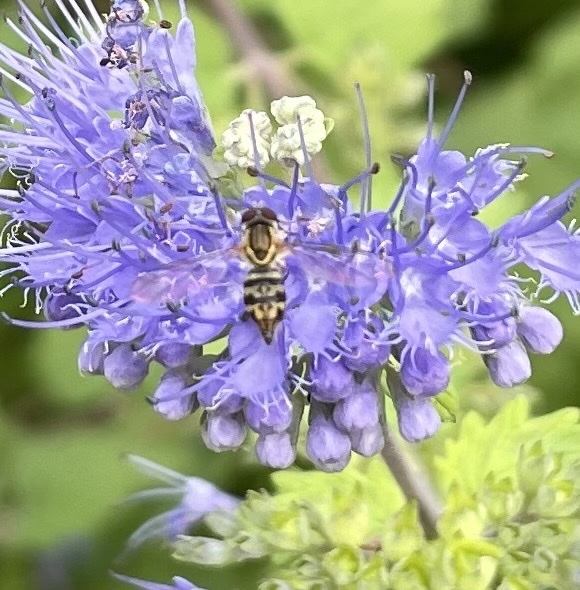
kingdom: Animalia
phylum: Arthropoda
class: Insecta
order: Diptera
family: Syrphidae
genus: Toxomerus
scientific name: Toxomerus geminatus
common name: Eastern calligrapher
